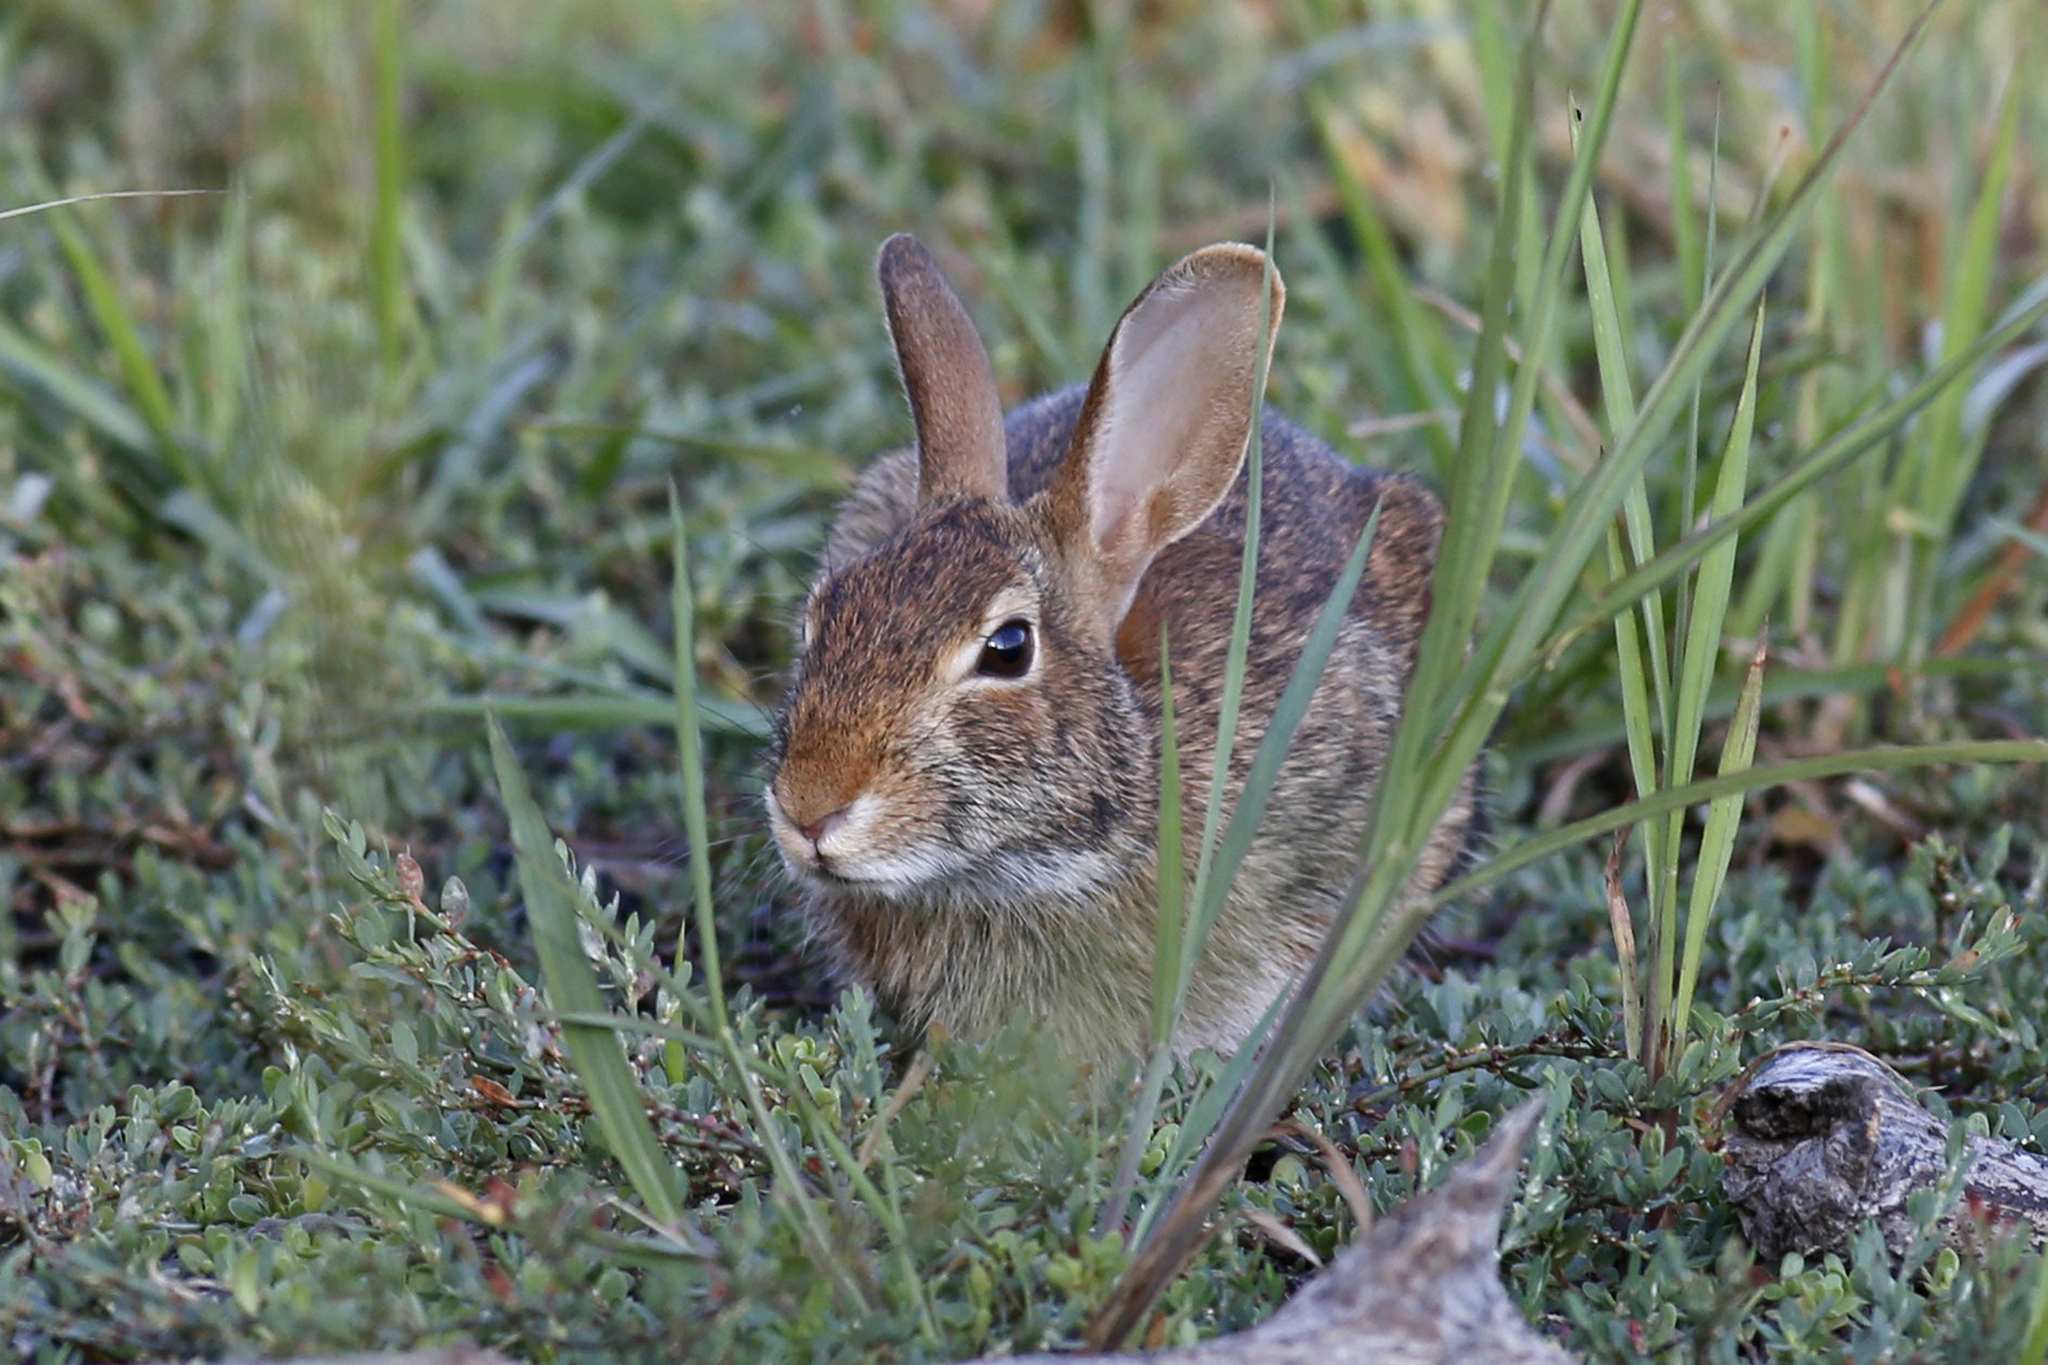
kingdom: Animalia
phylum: Chordata
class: Mammalia
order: Lagomorpha
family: Leporidae
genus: Sylvilagus
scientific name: Sylvilagus floridanus
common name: Eastern cottontail
